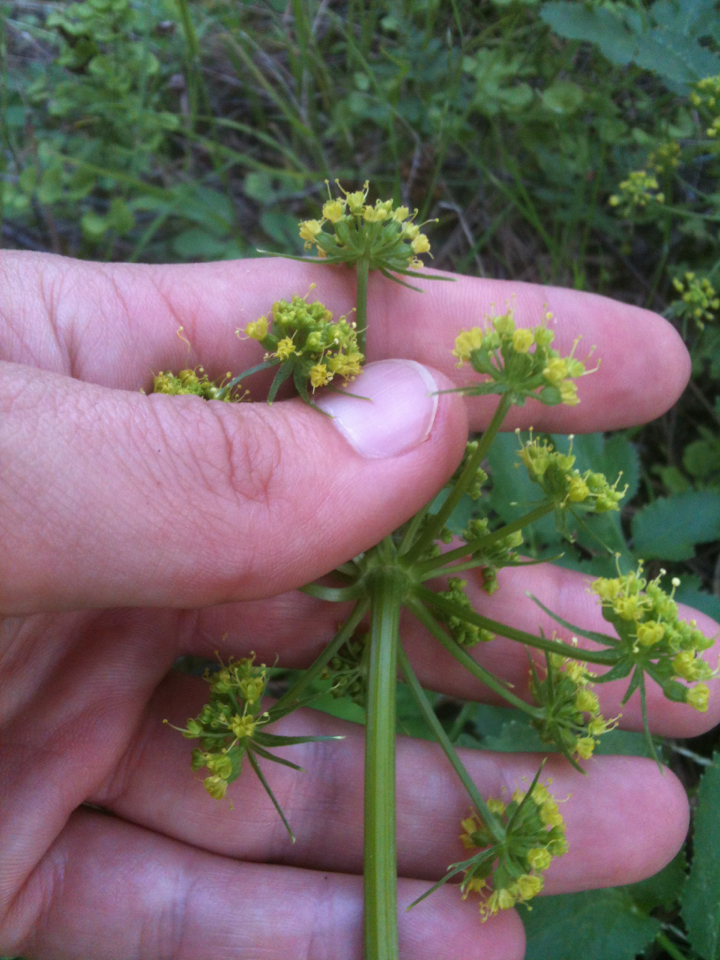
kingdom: Plantae
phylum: Tracheophyta
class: Magnoliopsida
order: Apiales
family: Apiaceae
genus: Tauschia
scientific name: Tauschia hartwegii
